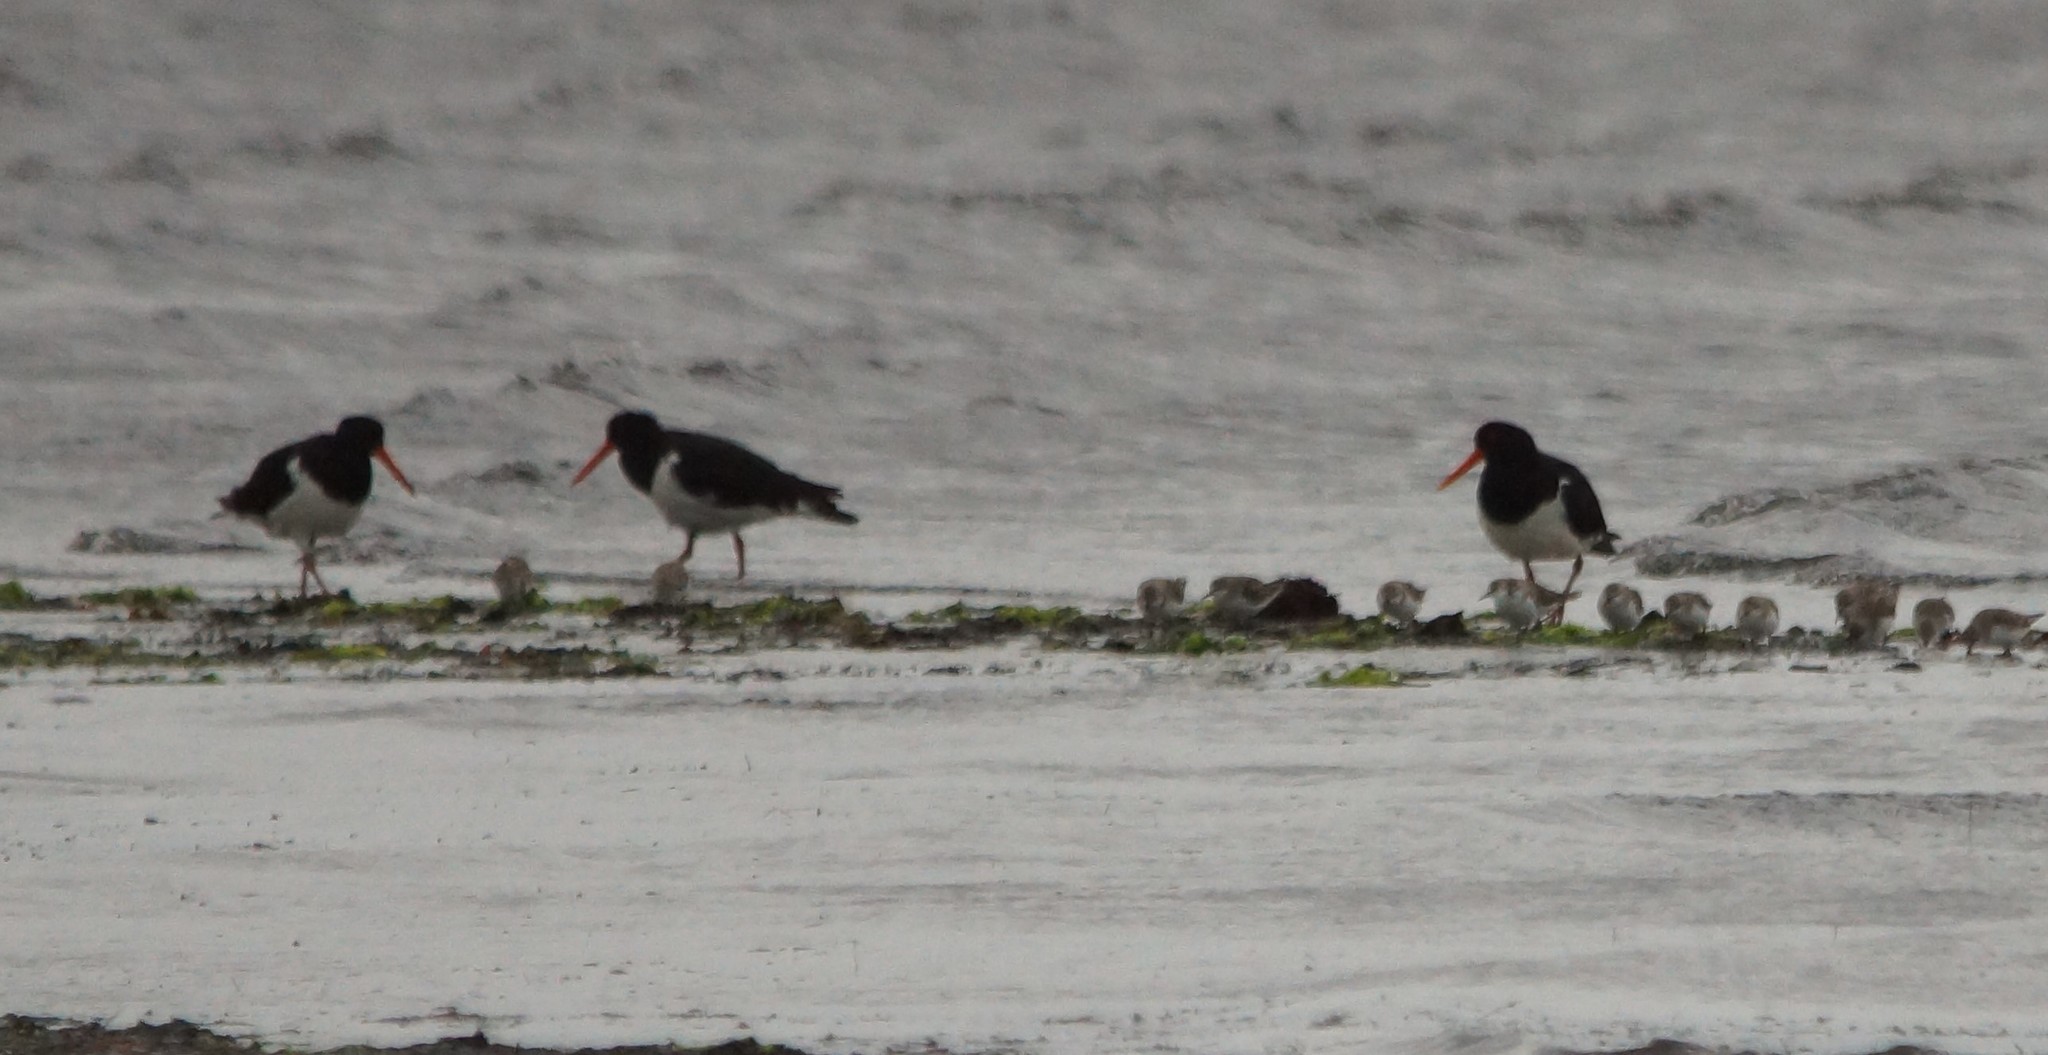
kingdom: Animalia
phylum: Chordata
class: Aves
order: Charadriiformes
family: Haematopodidae
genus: Haematopus
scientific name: Haematopus longirostris
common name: Pied oystercatcher
